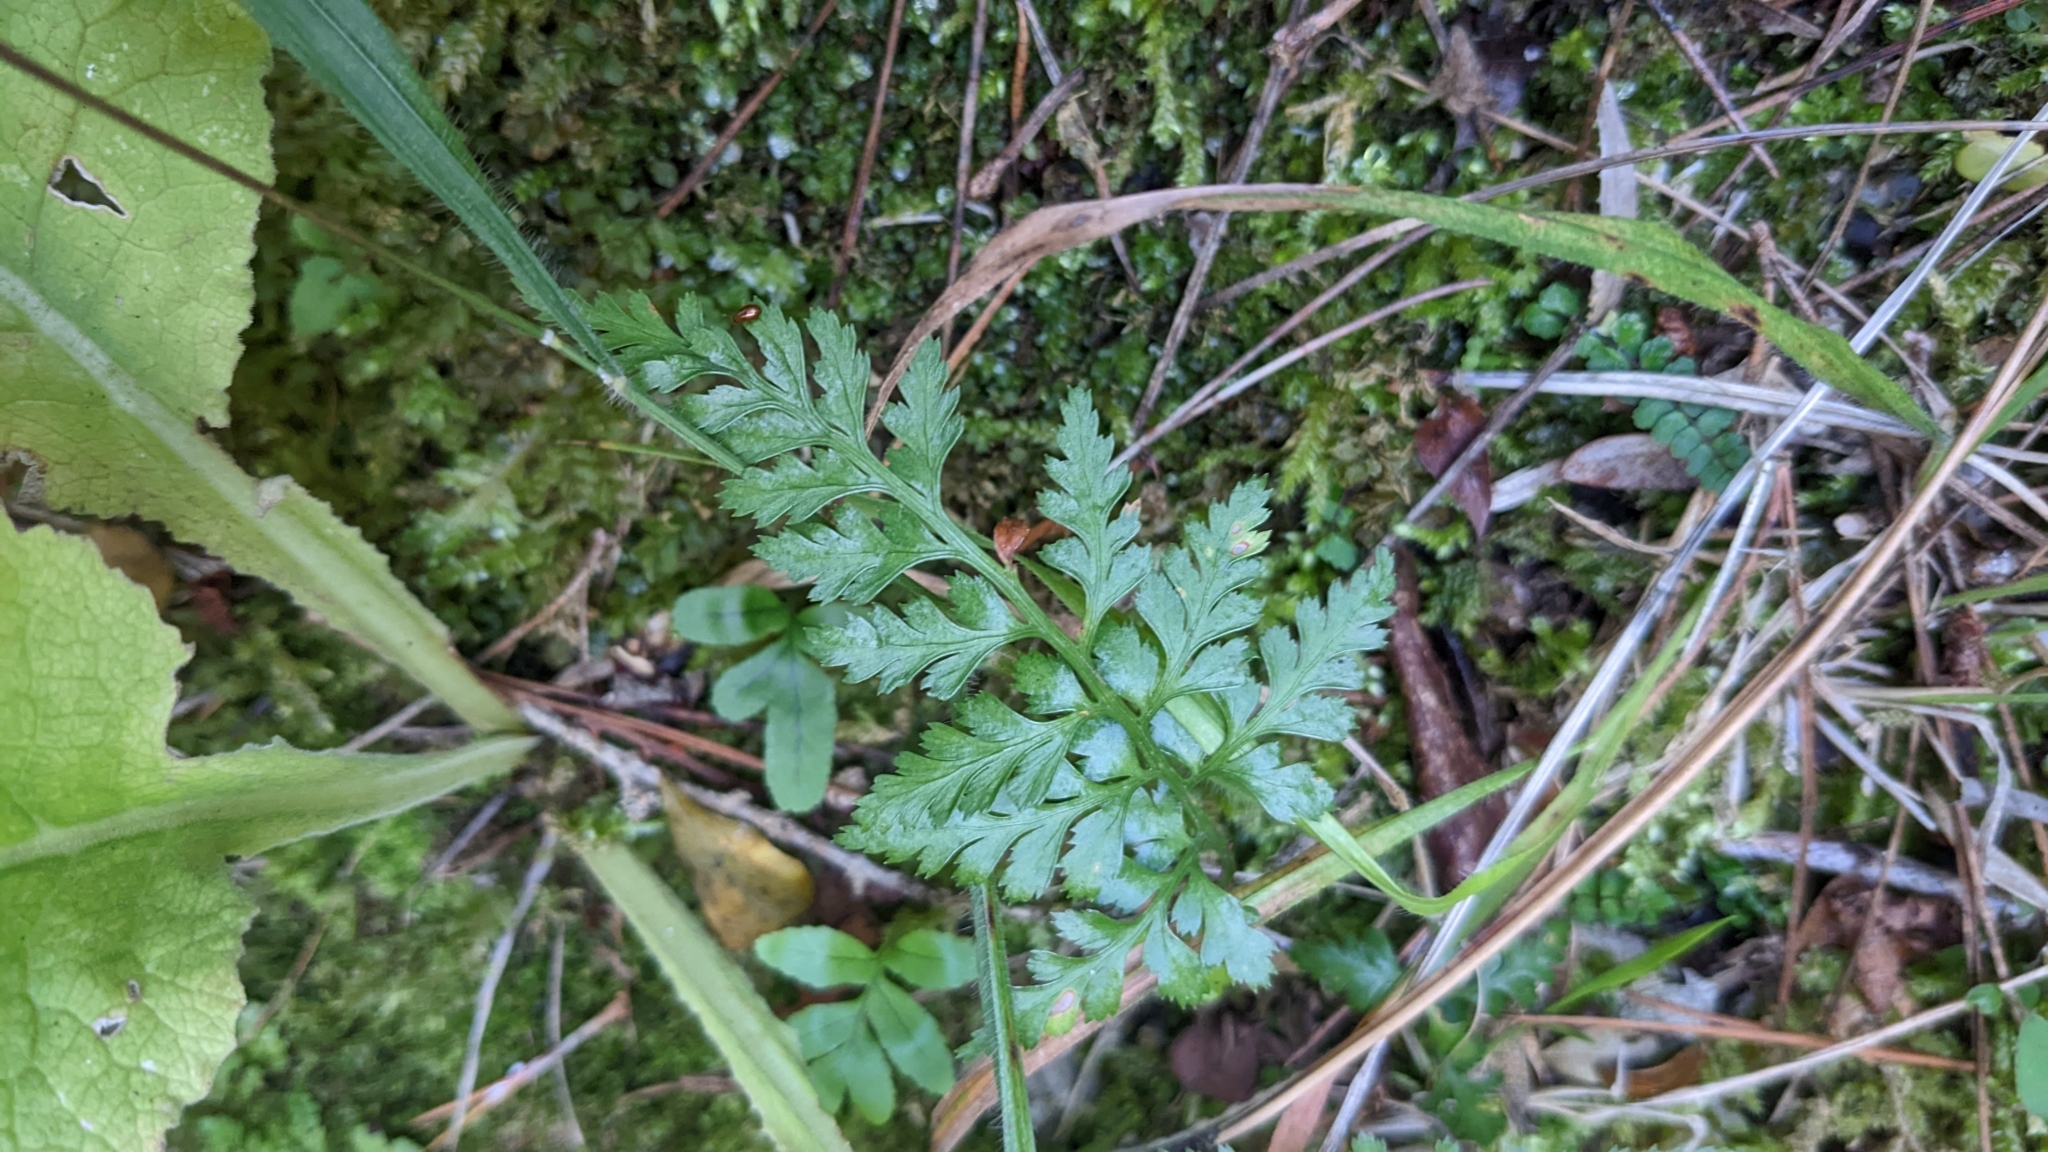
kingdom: Plantae
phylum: Tracheophyta
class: Polypodiopsida
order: Polypodiales
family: Aspleniaceae
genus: Asplenium
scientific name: Asplenium adiantum-nigrum
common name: Black spleenwort
